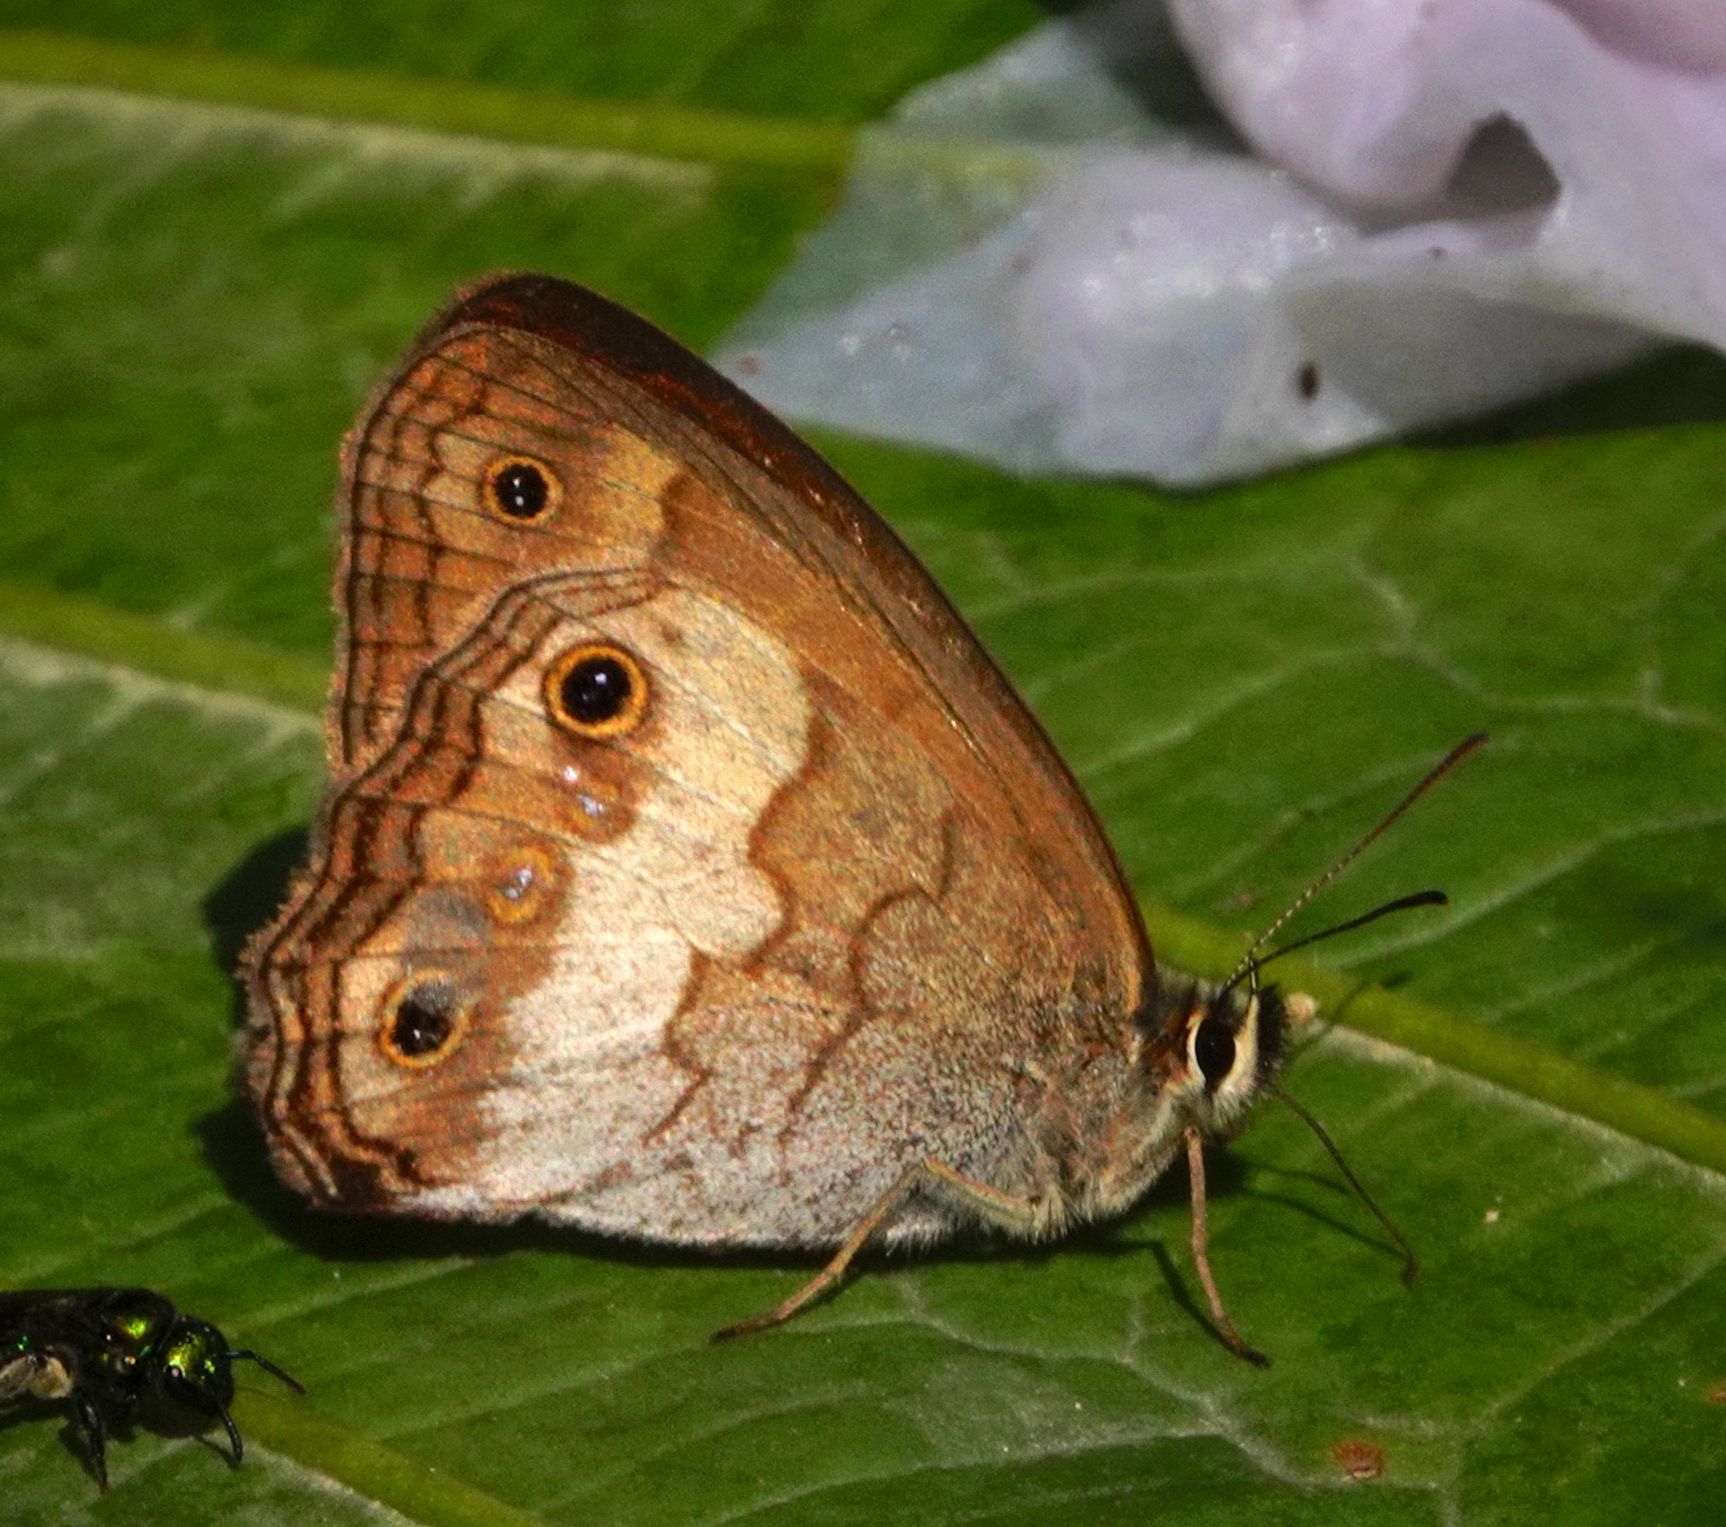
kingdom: Animalia
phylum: Arthropoda
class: Insecta
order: Lepidoptera
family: Nymphalidae
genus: Graphita
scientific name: Graphita griphe
